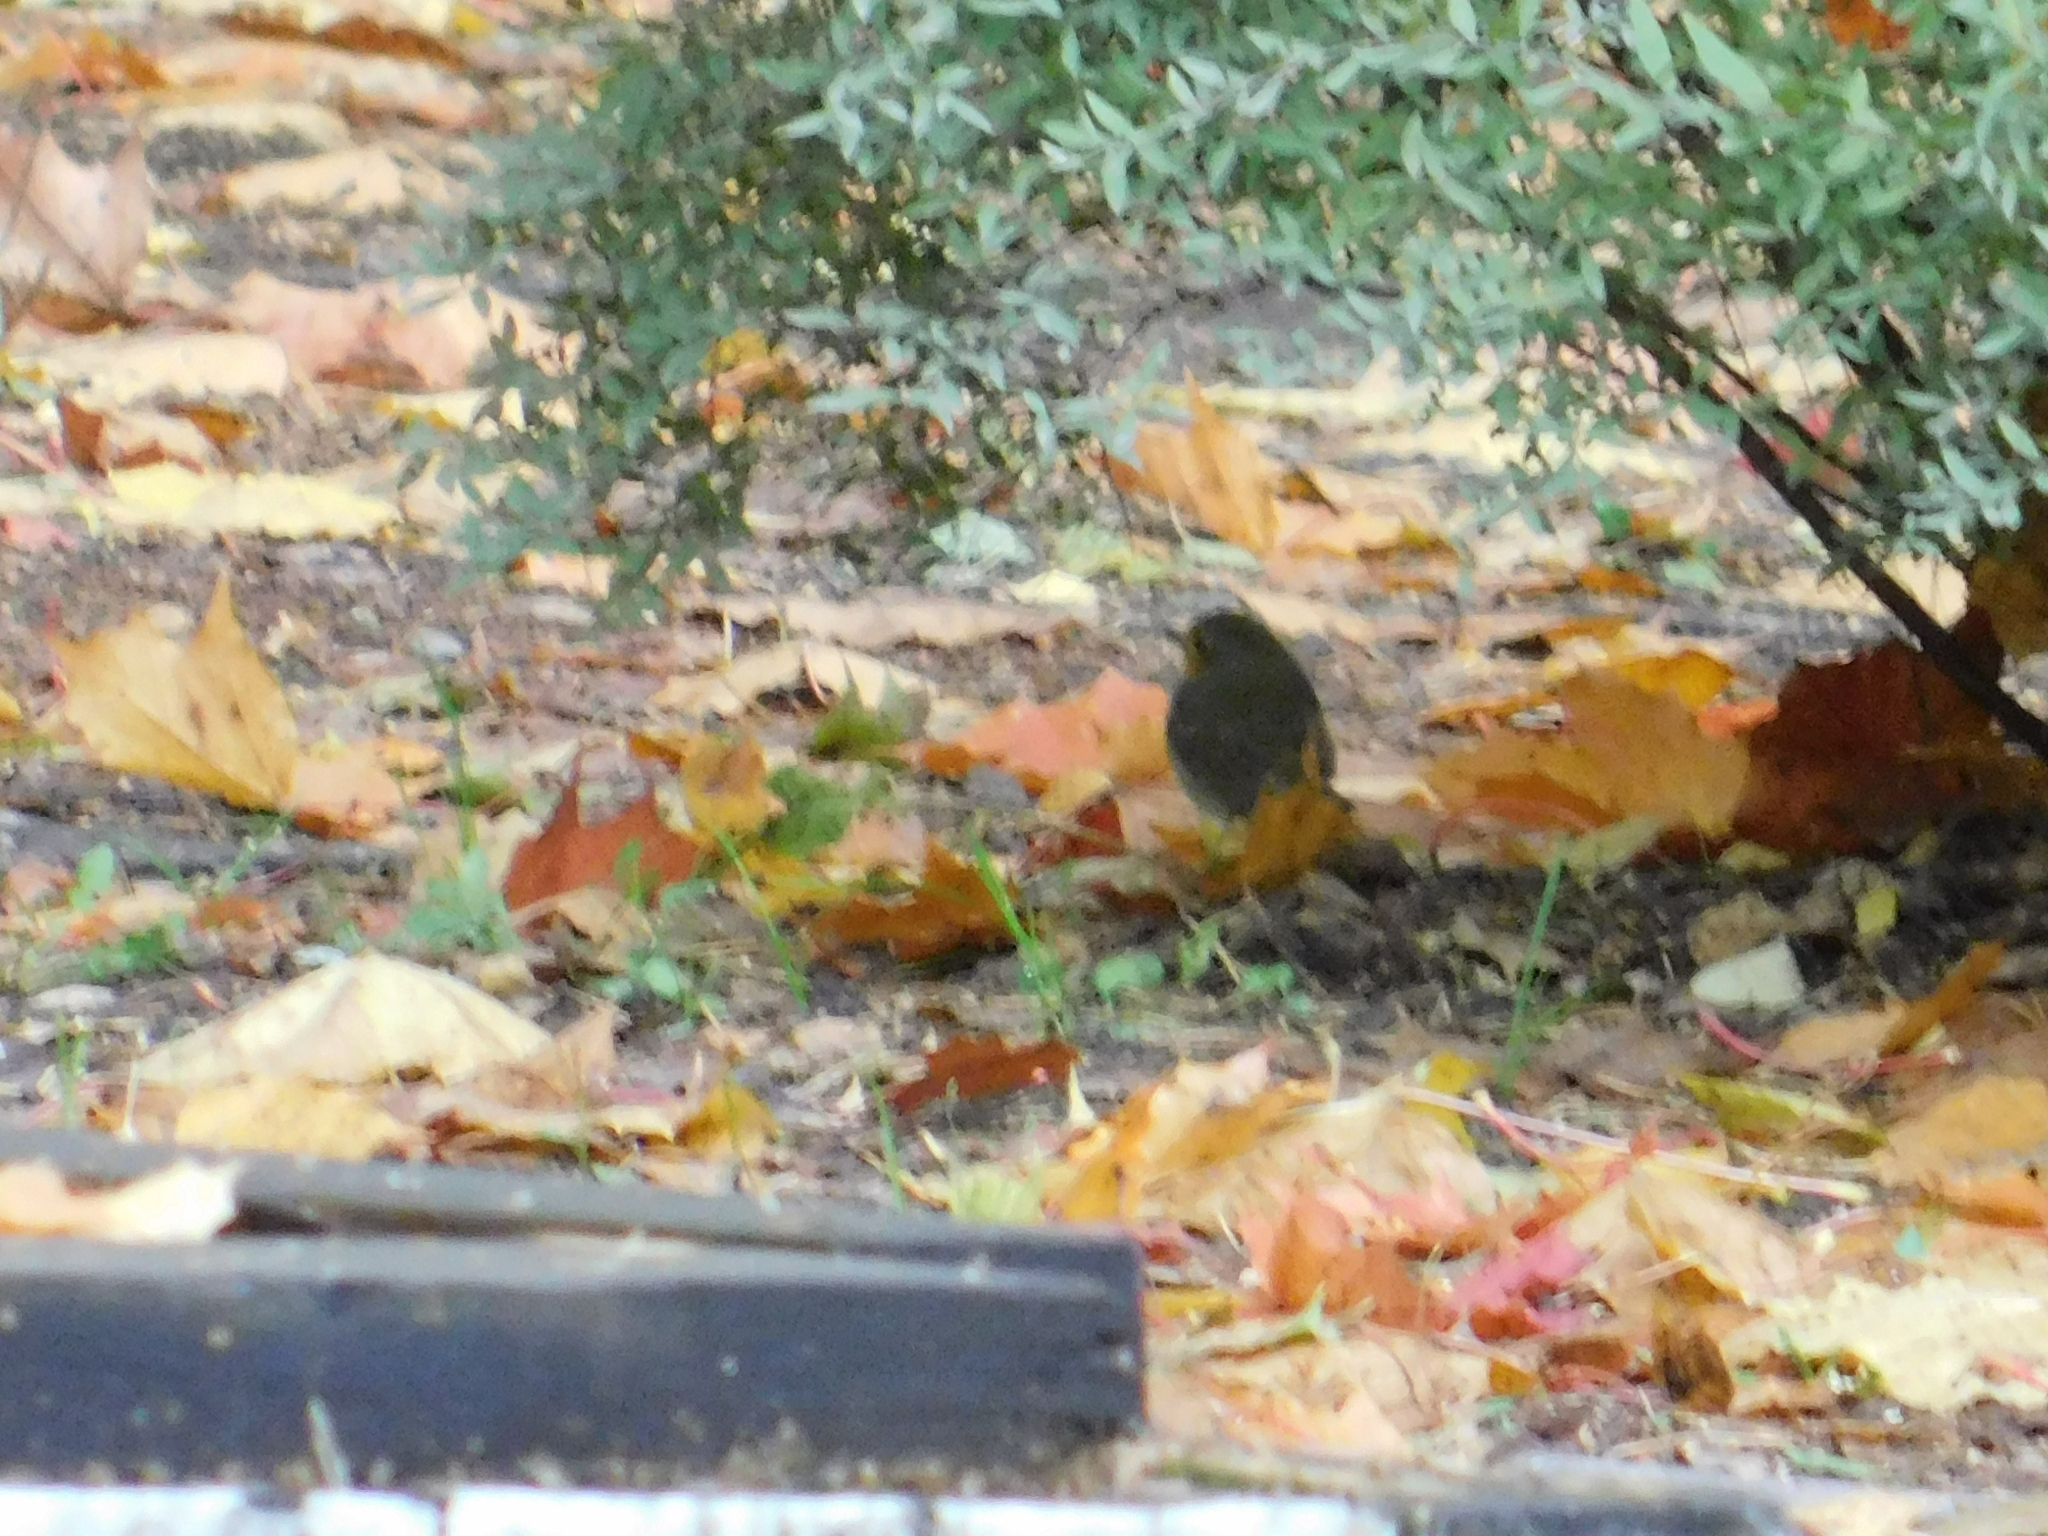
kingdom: Animalia
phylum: Chordata
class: Aves
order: Passeriformes
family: Muscicapidae
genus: Erithacus
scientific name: Erithacus rubecula
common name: European robin
